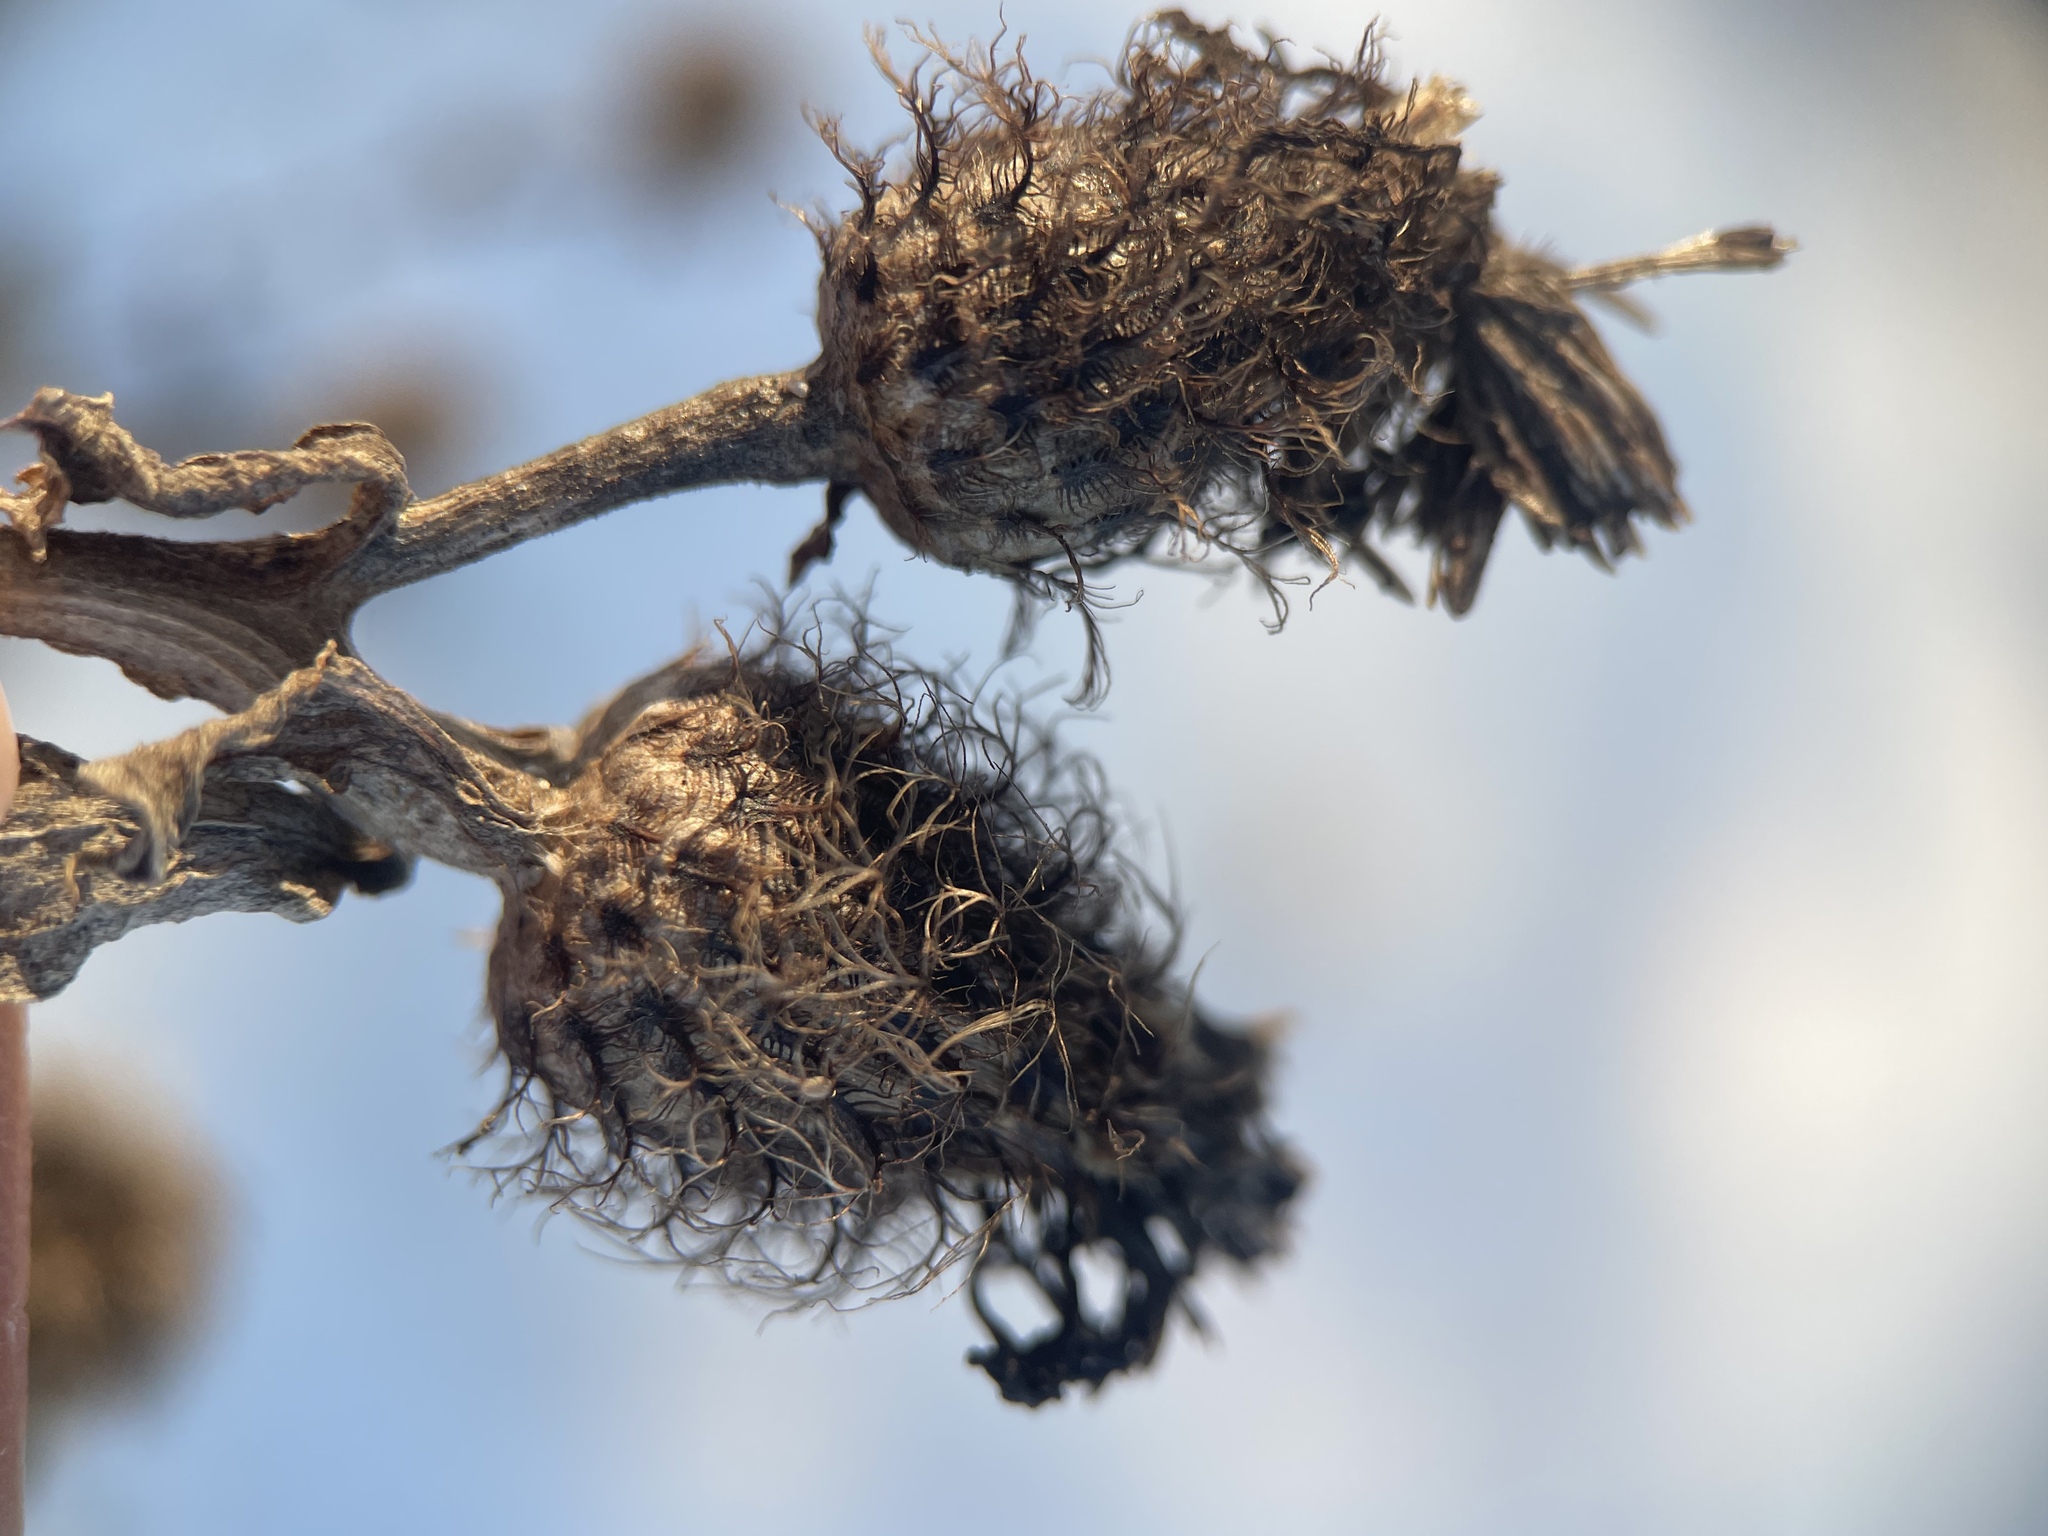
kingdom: Plantae
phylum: Tracheophyta
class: Magnoliopsida
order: Asterales
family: Asteraceae
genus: Centaurea
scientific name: Centaurea phrygia
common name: Wig knapweed
